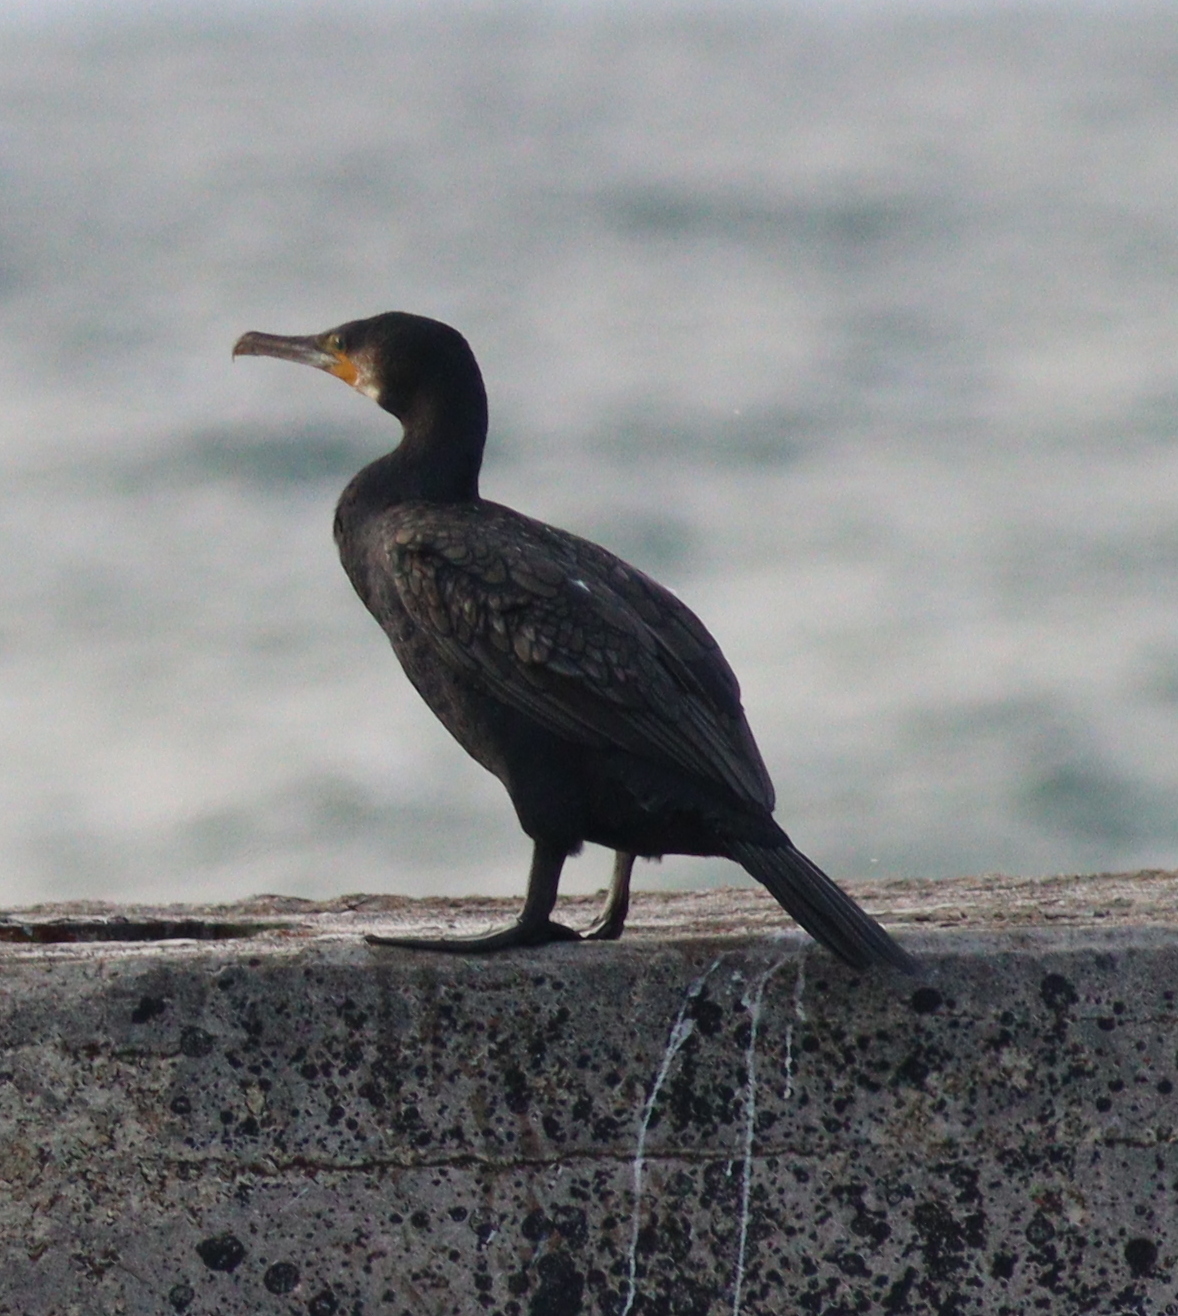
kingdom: Animalia
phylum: Chordata
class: Aves
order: Suliformes
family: Phalacrocoracidae
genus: Phalacrocorax
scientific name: Phalacrocorax carbo
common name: Great cormorant
